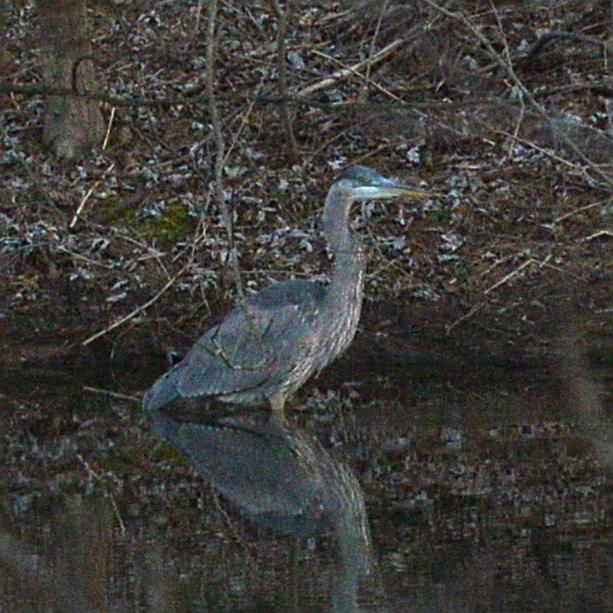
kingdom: Animalia
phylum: Chordata
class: Aves
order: Pelecaniformes
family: Ardeidae
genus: Ardea
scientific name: Ardea herodias
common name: Great blue heron
